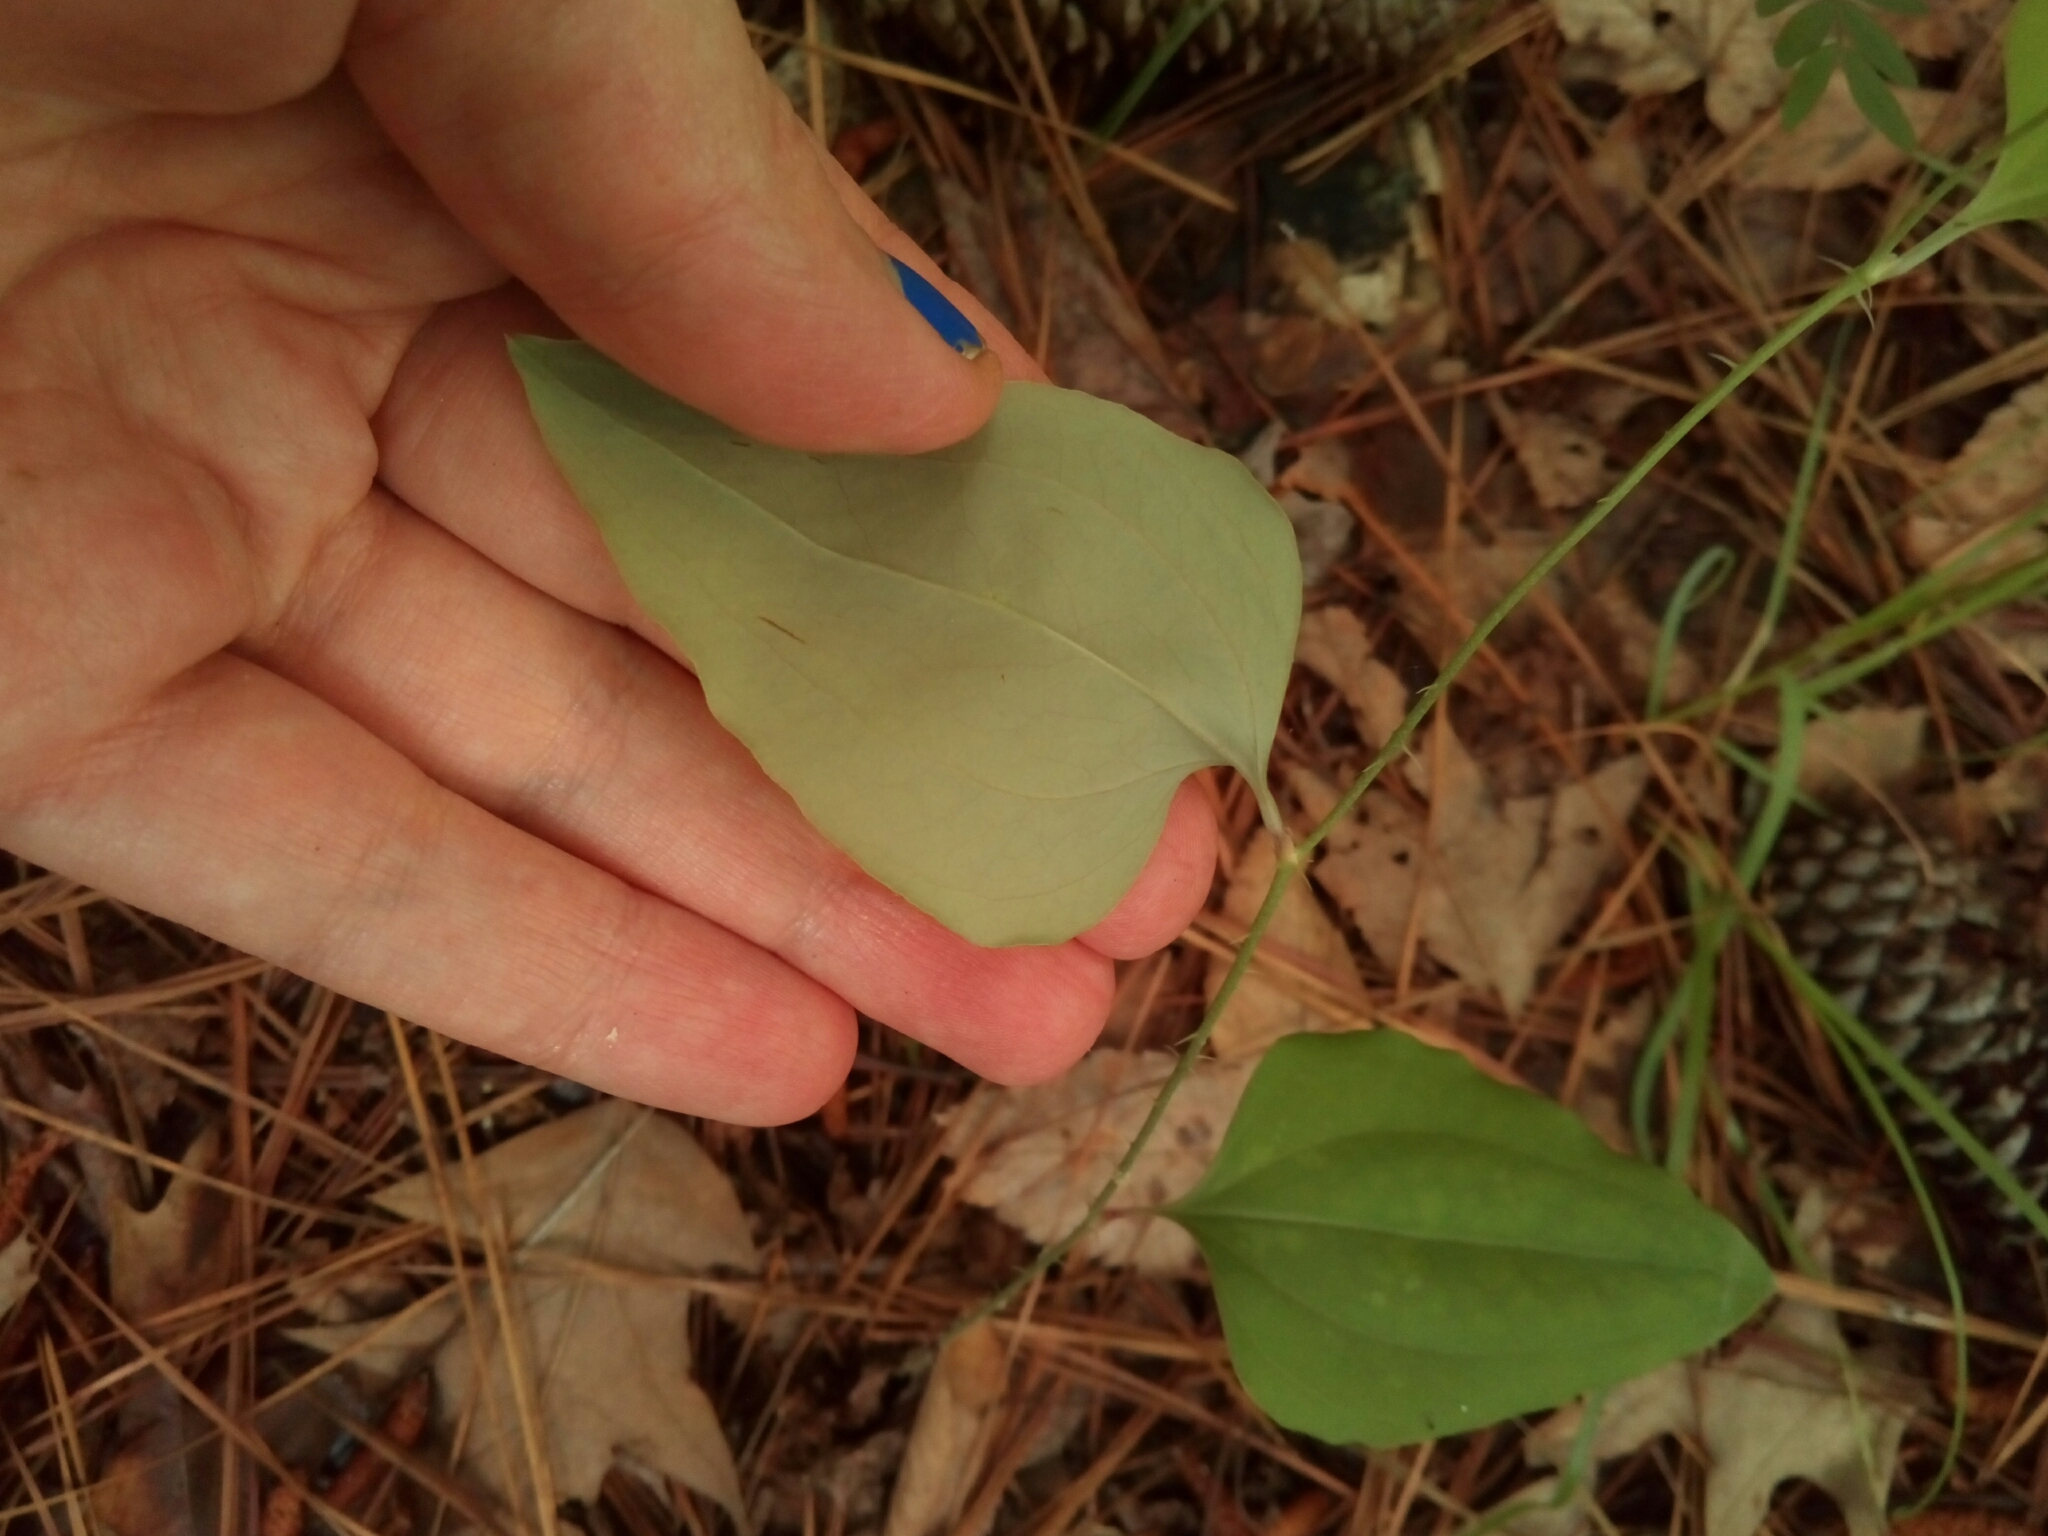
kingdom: Plantae
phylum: Tracheophyta
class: Liliopsida
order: Liliales
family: Smilacaceae
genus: Smilax
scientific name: Smilax glauca
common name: Cat greenbrier
